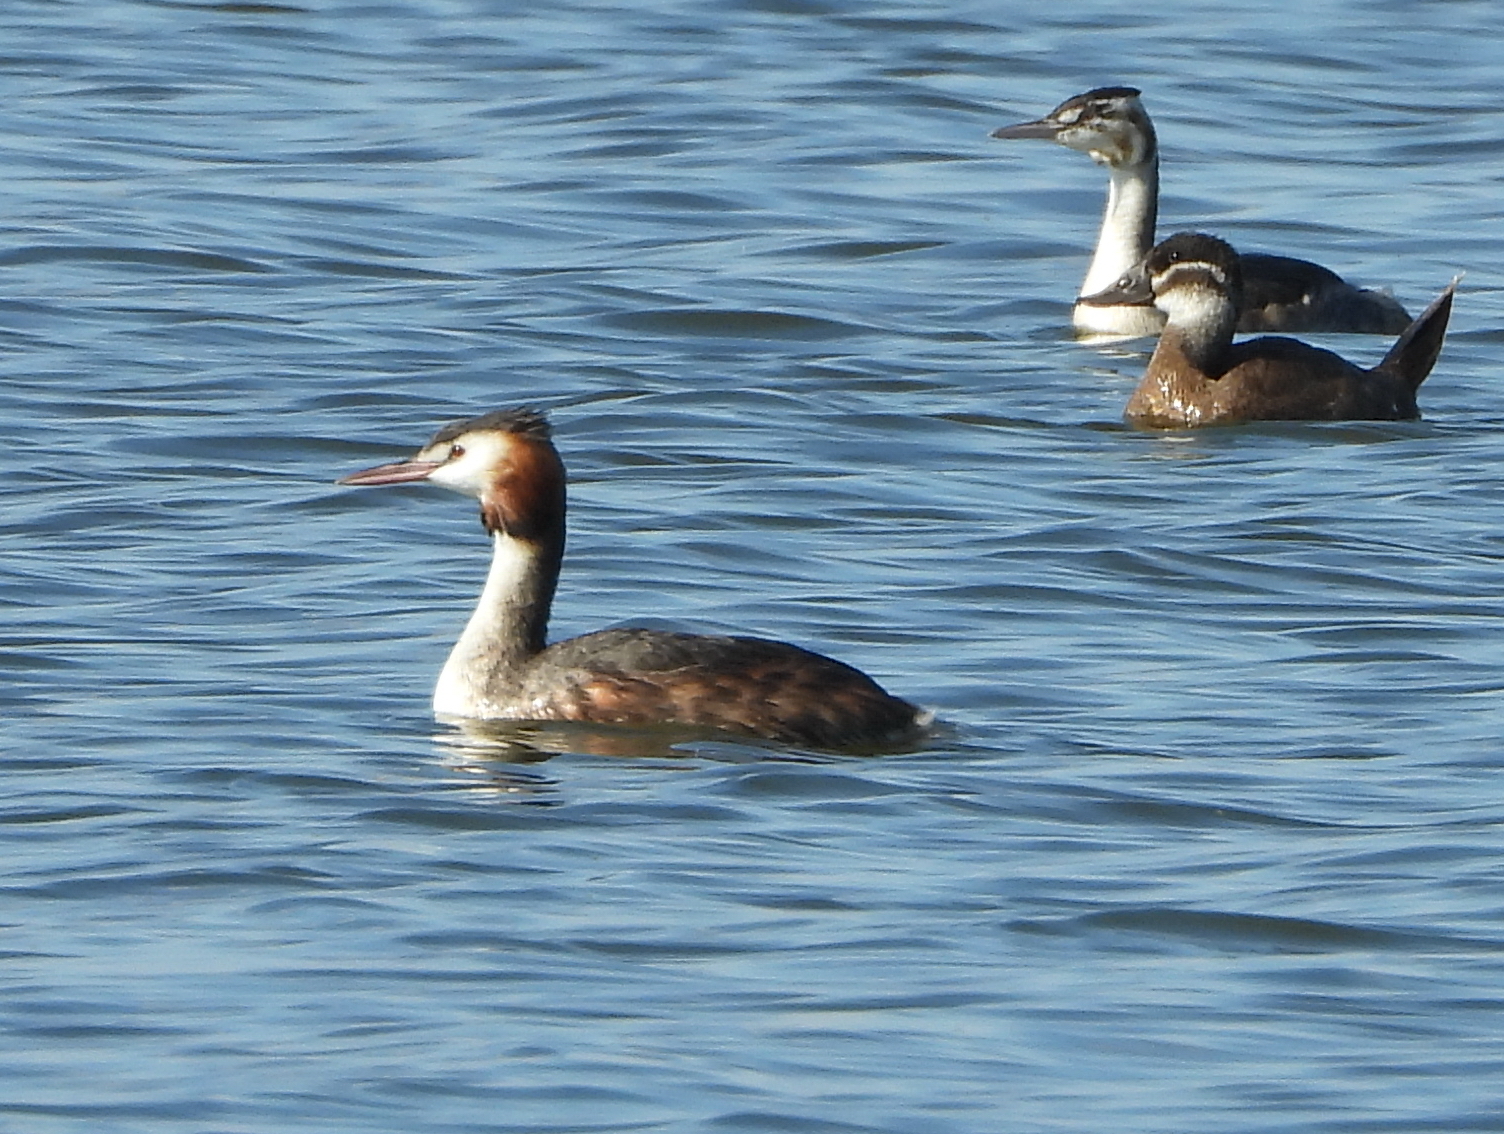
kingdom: Animalia
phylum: Chordata
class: Aves
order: Podicipediformes
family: Podicipedidae
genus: Podiceps
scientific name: Podiceps cristatus
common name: Great crested grebe
